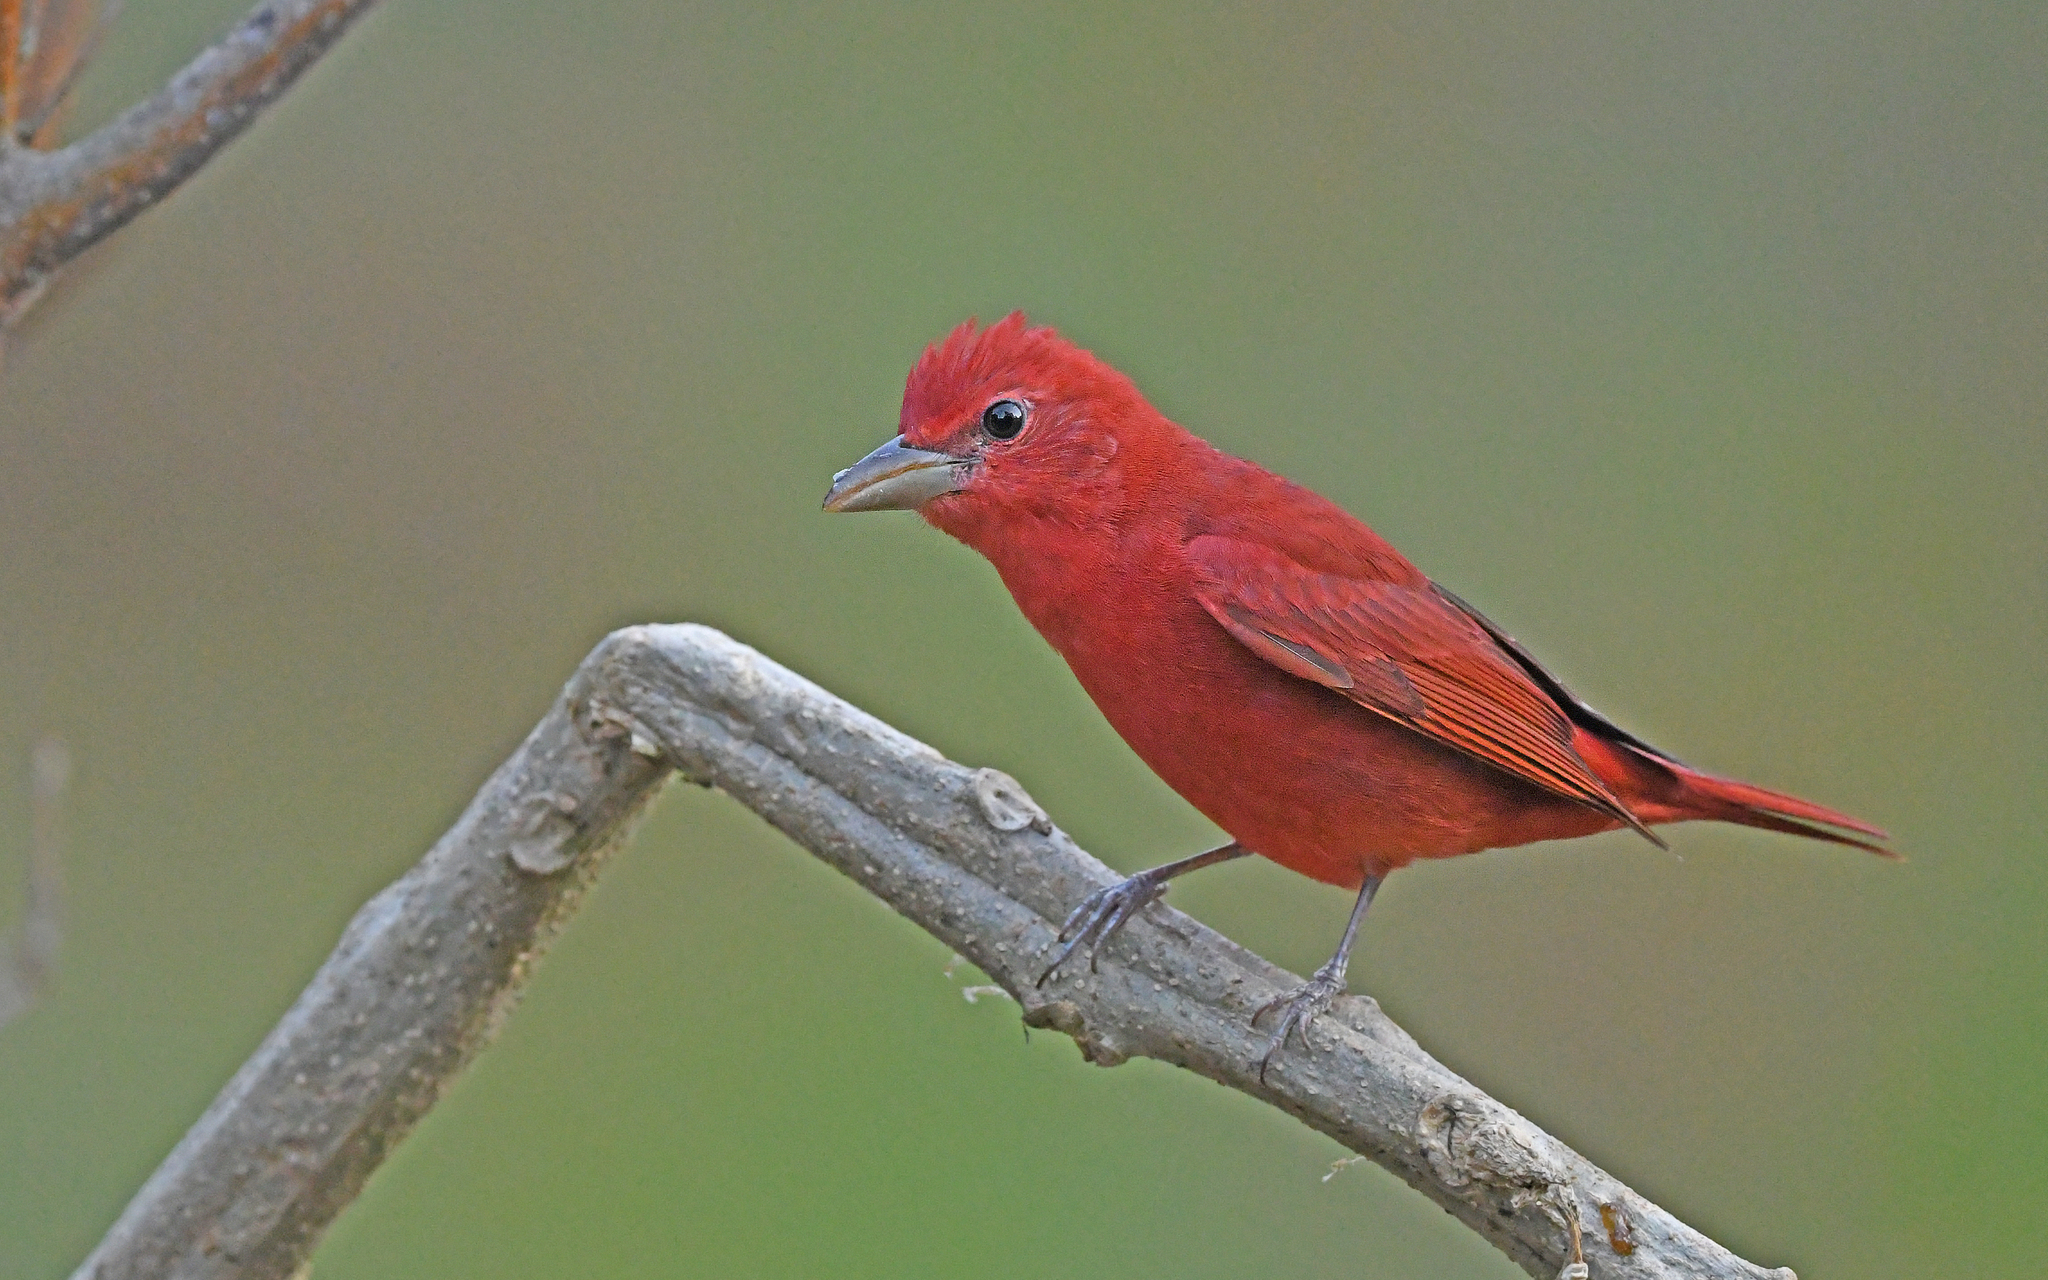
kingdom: Animalia
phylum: Chordata
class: Aves
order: Passeriformes
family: Cardinalidae
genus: Piranga
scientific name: Piranga rubra
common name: Summer tanager
